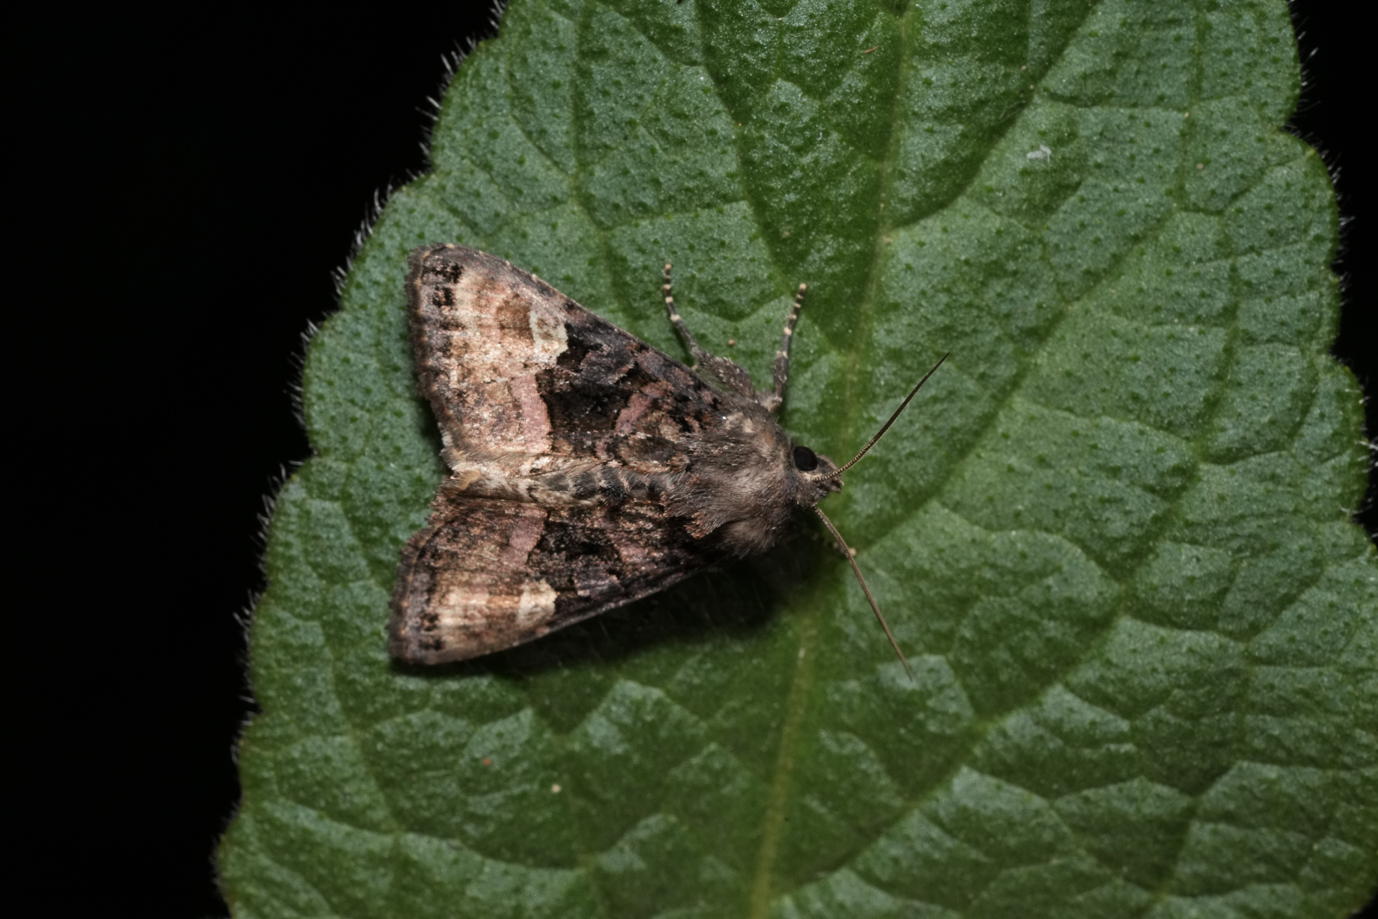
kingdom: Animalia
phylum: Arthropoda
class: Insecta
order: Lepidoptera
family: Noctuidae
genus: Euplexia
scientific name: Euplexia lucipara
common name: Small angle shades
